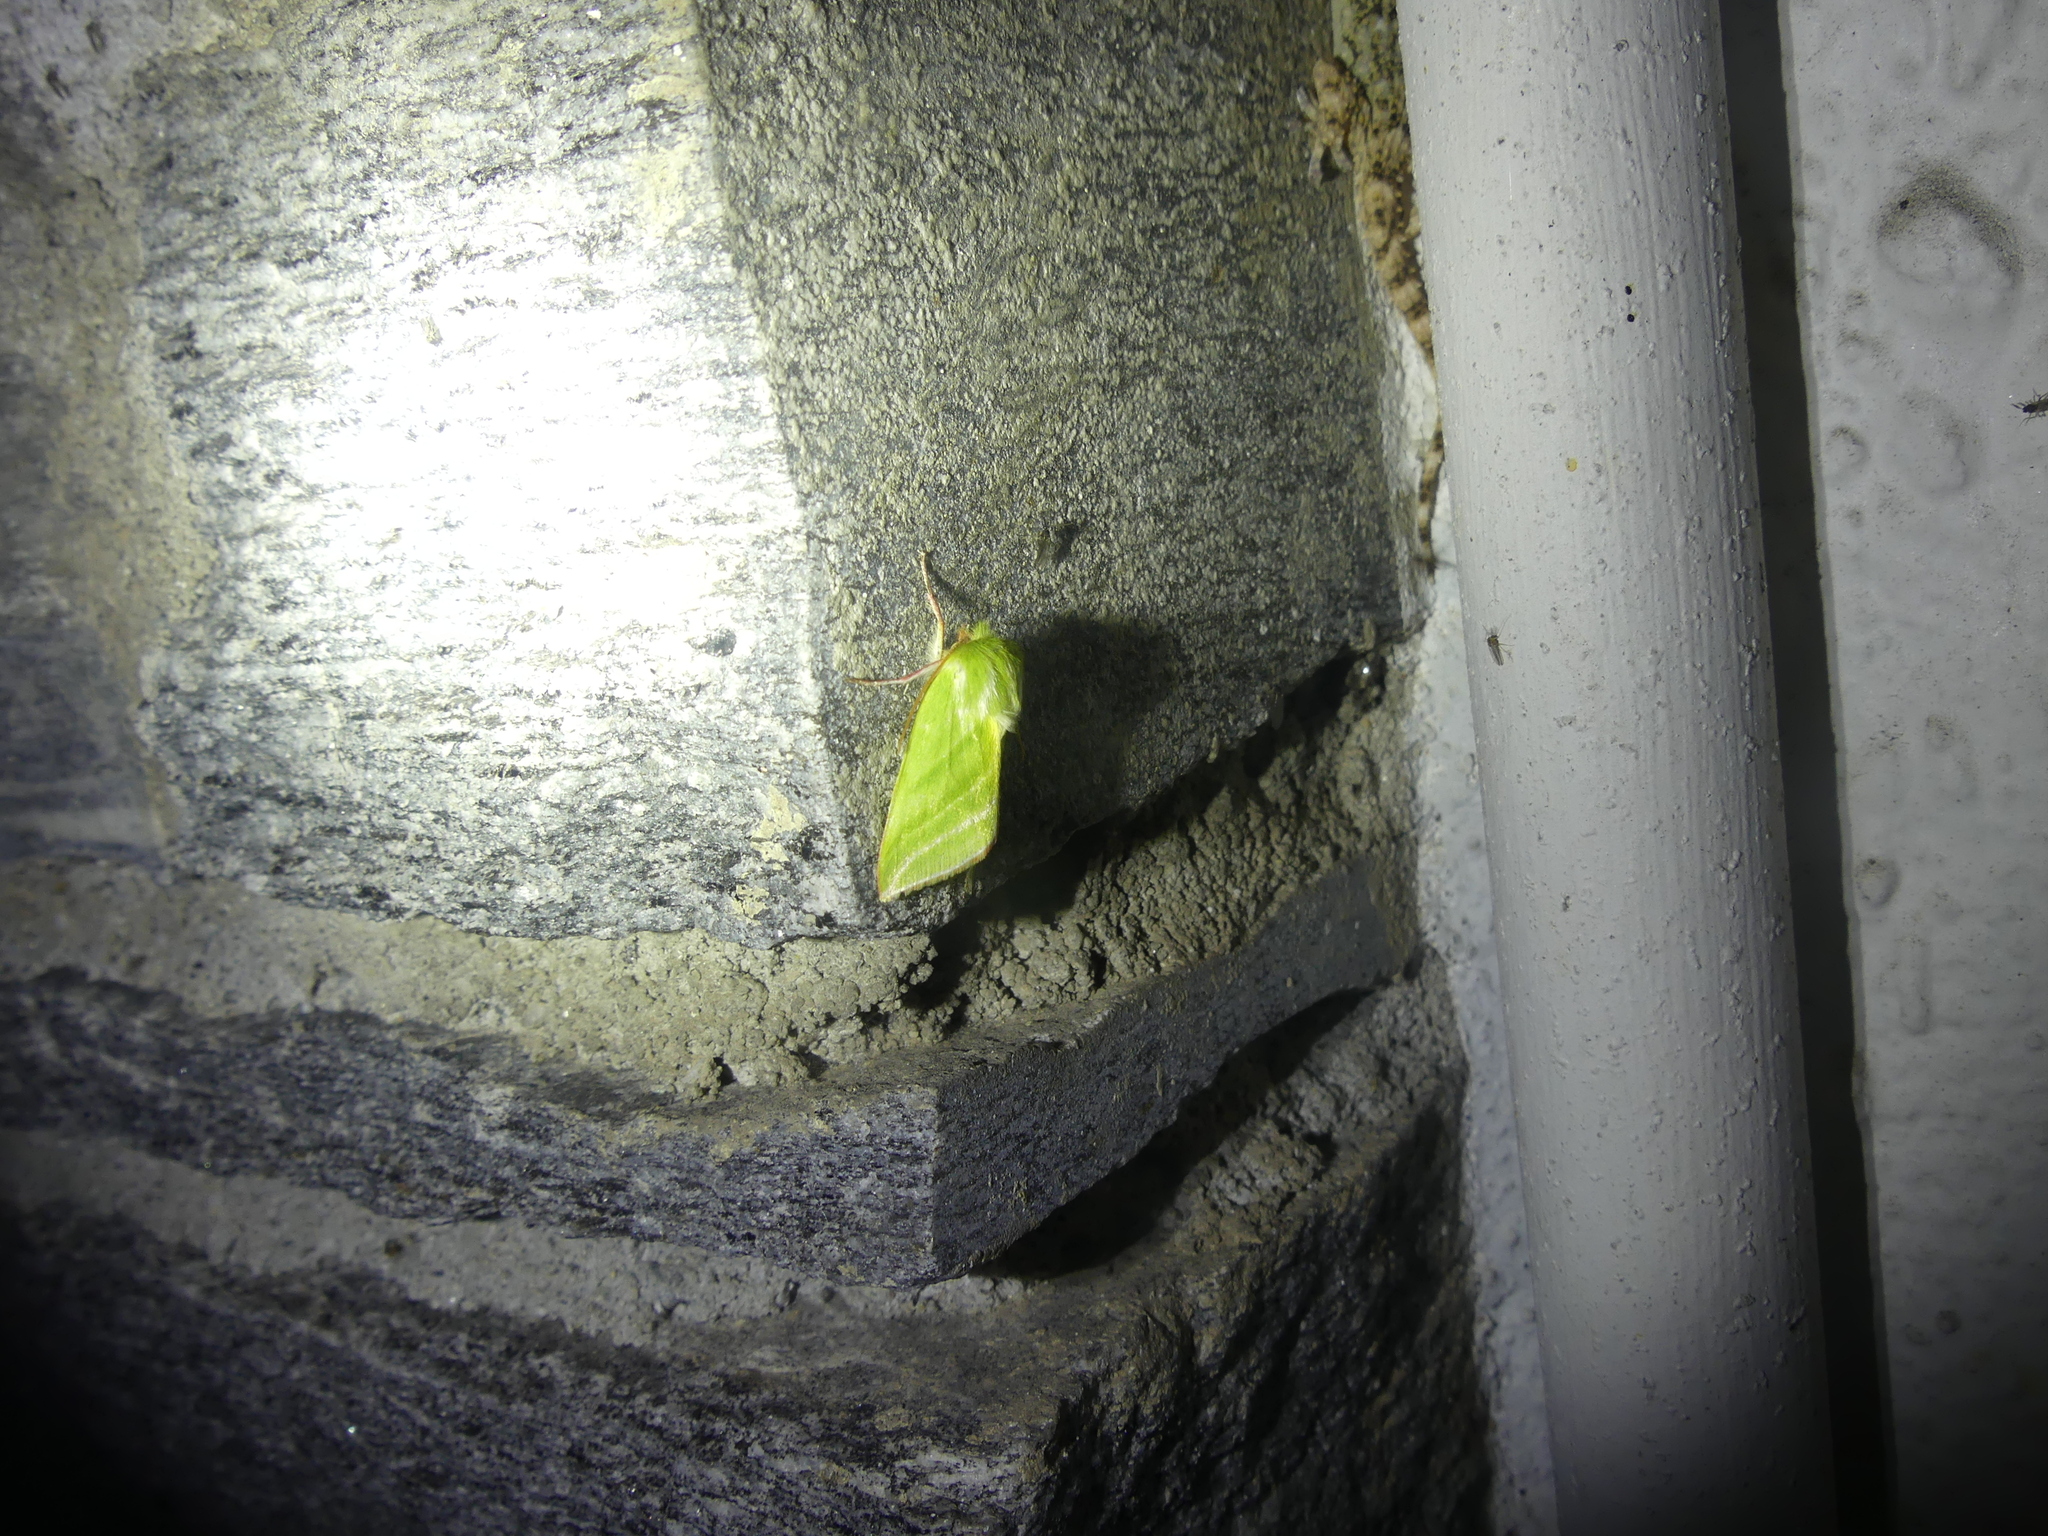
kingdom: Animalia
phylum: Arthropoda
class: Insecta
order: Lepidoptera
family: Nolidae
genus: Pseudoips
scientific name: Pseudoips prasinana
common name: Green silver-lines
